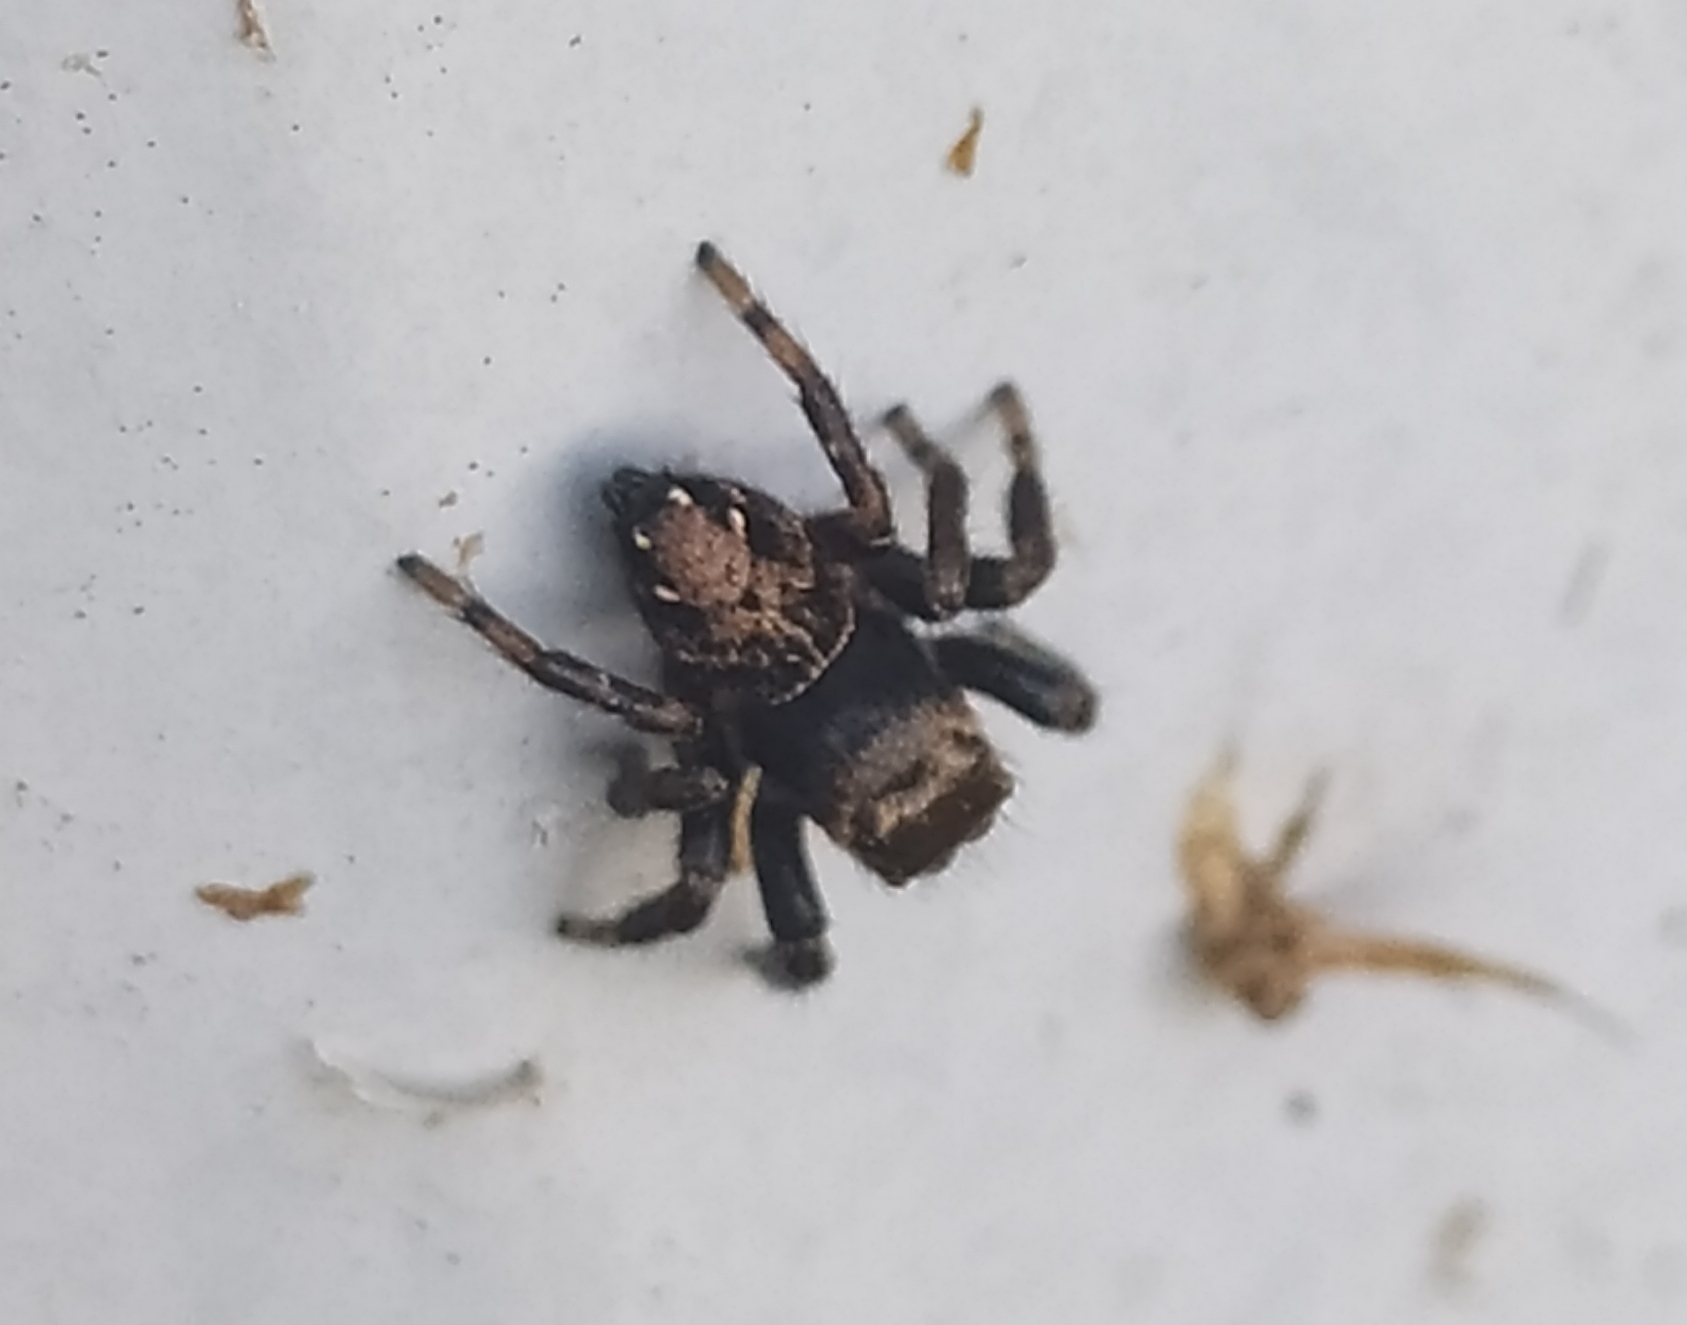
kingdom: Animalia
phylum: Arthropoda
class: Arachnida
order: Araneae
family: Salticidae
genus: Evarcha
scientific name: Evarcha arcuata
